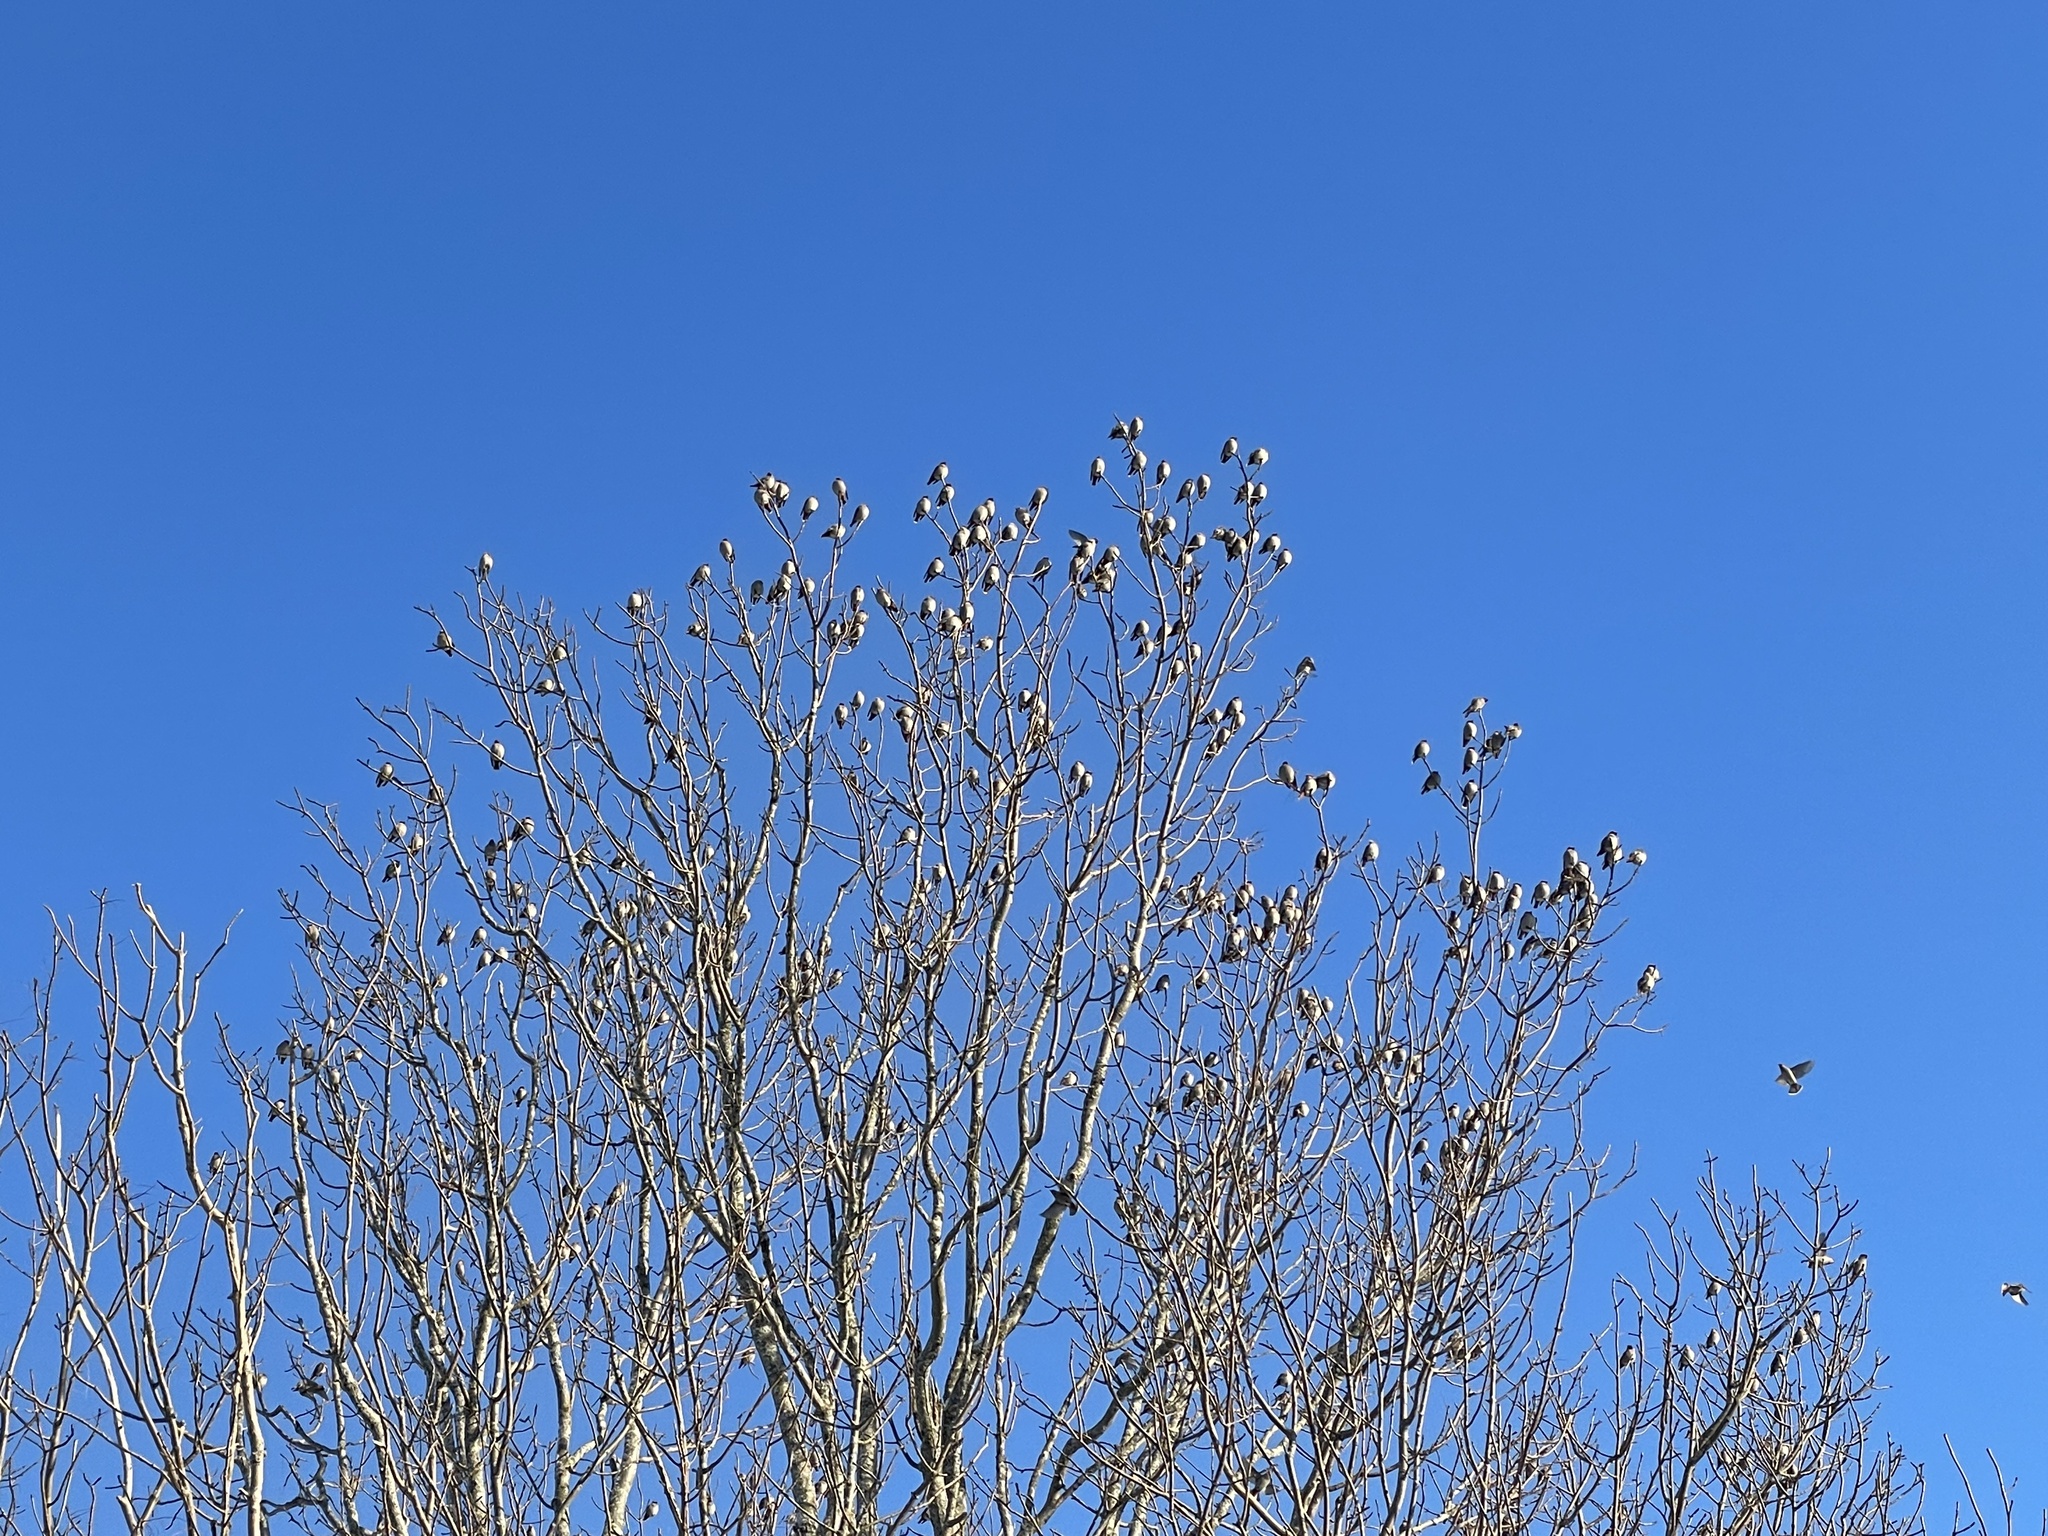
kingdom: Animalia
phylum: Chordata
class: Aves
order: Passeriformes
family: Bombycillidae
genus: Bombycilla
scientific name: Bombycilla garrulus
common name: Bohemian waxwing
